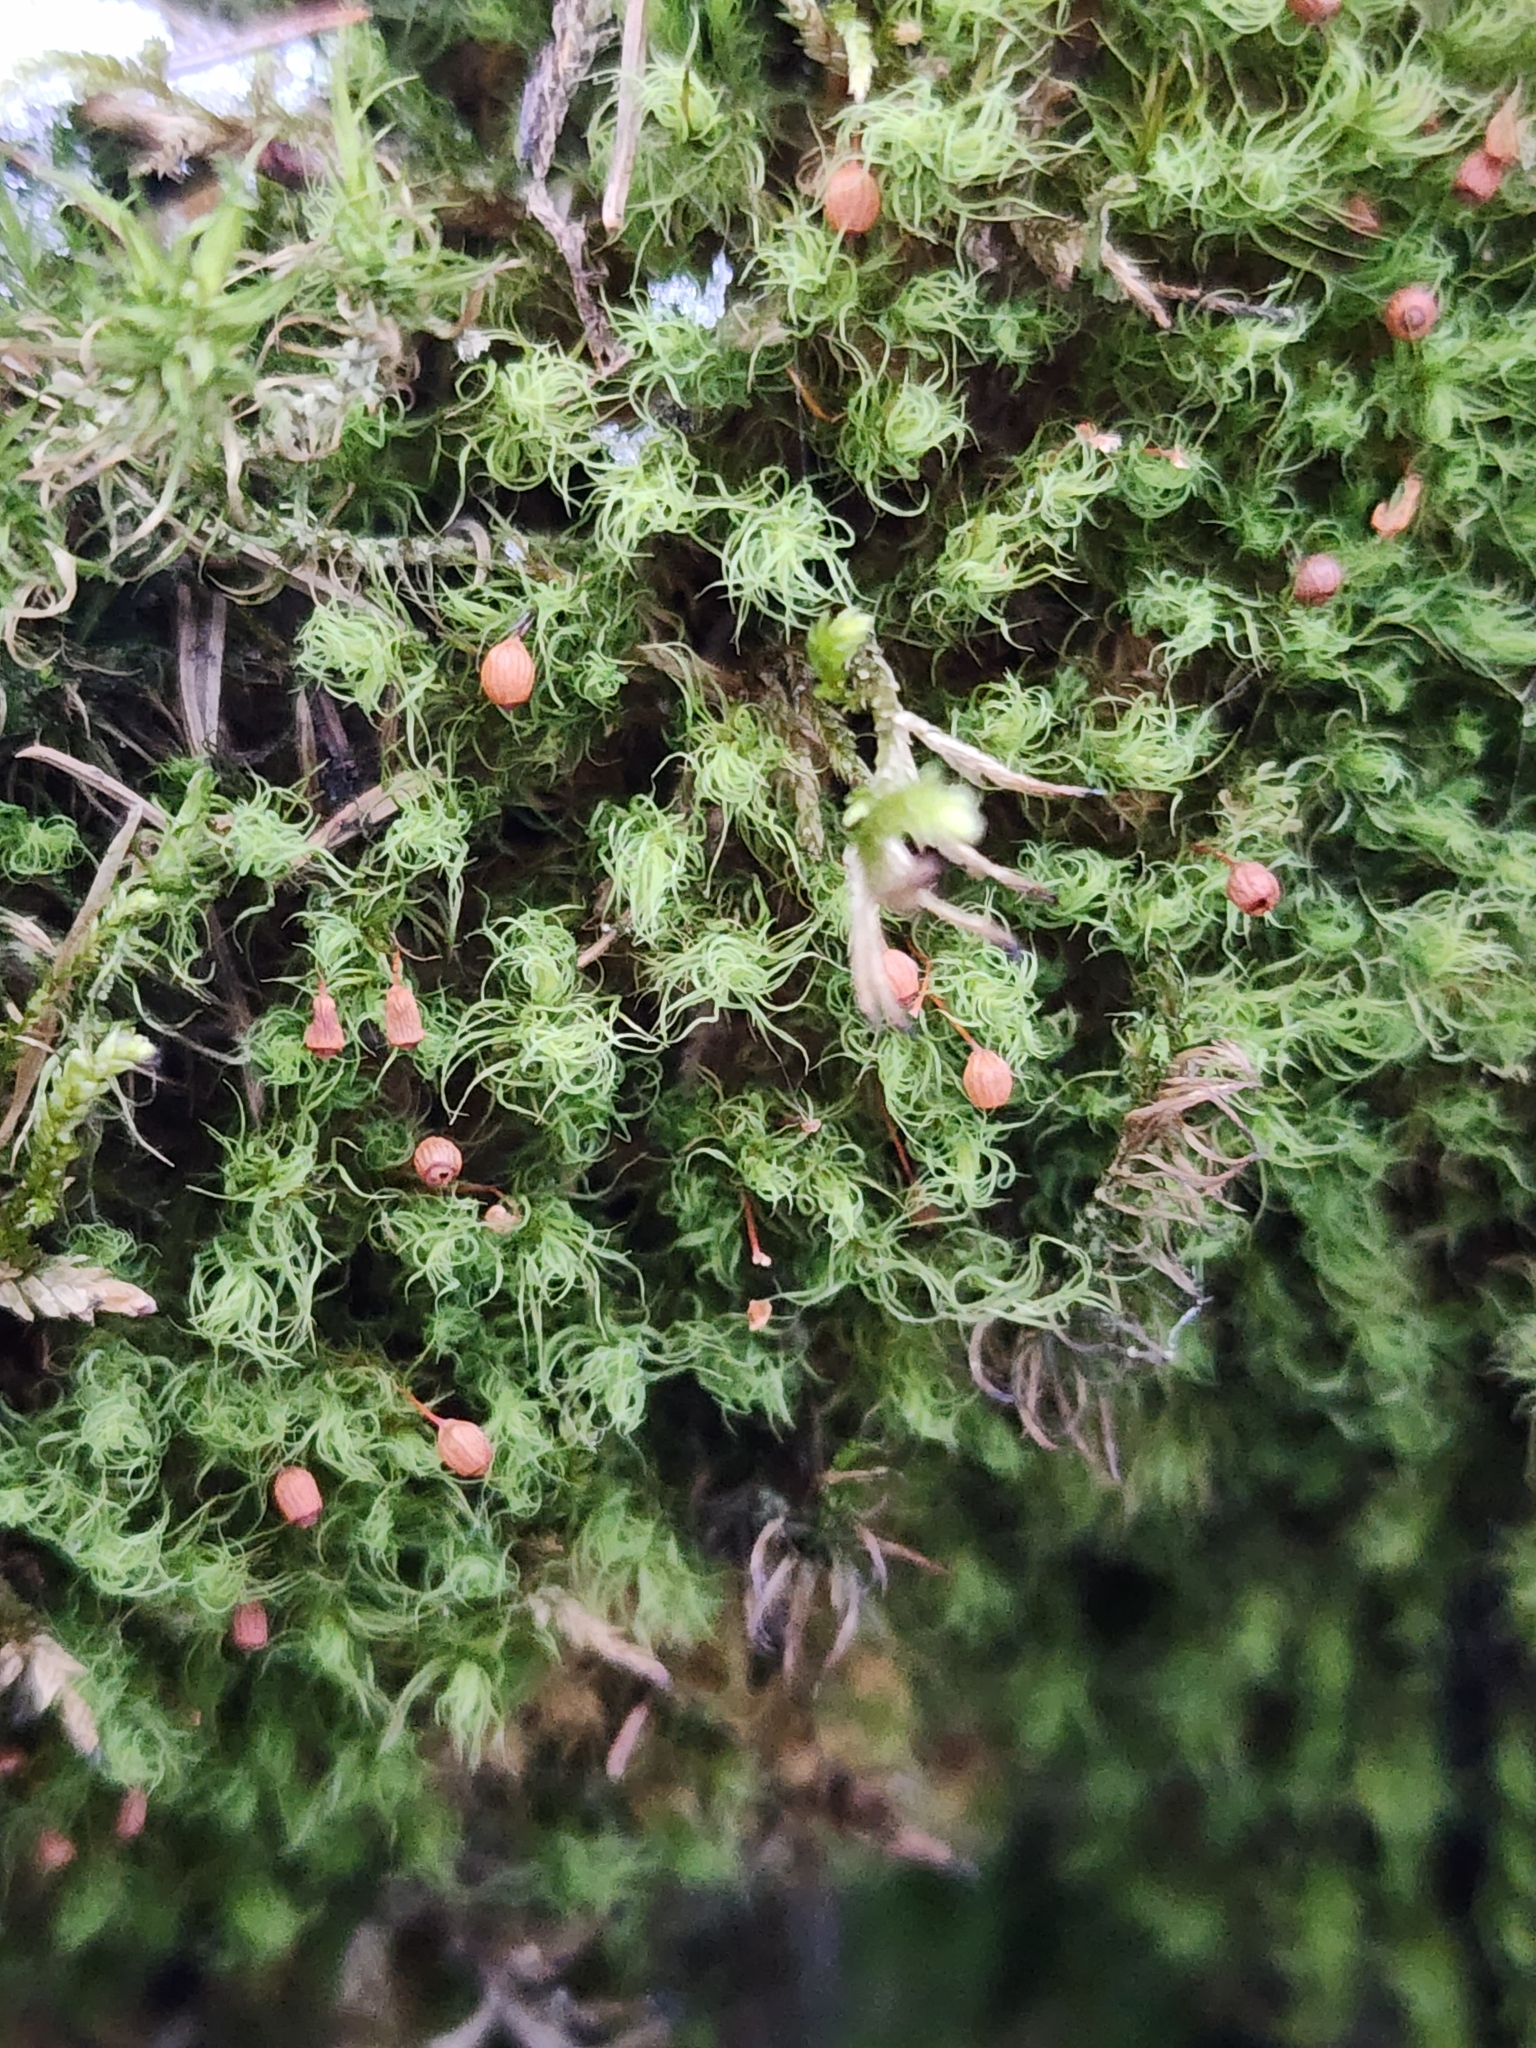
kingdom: Plantae
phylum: Bryophyta
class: Bryopsida
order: Bartramiales
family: Bartramiaceae
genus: Bartramia
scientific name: Bartramia ithyphylla
